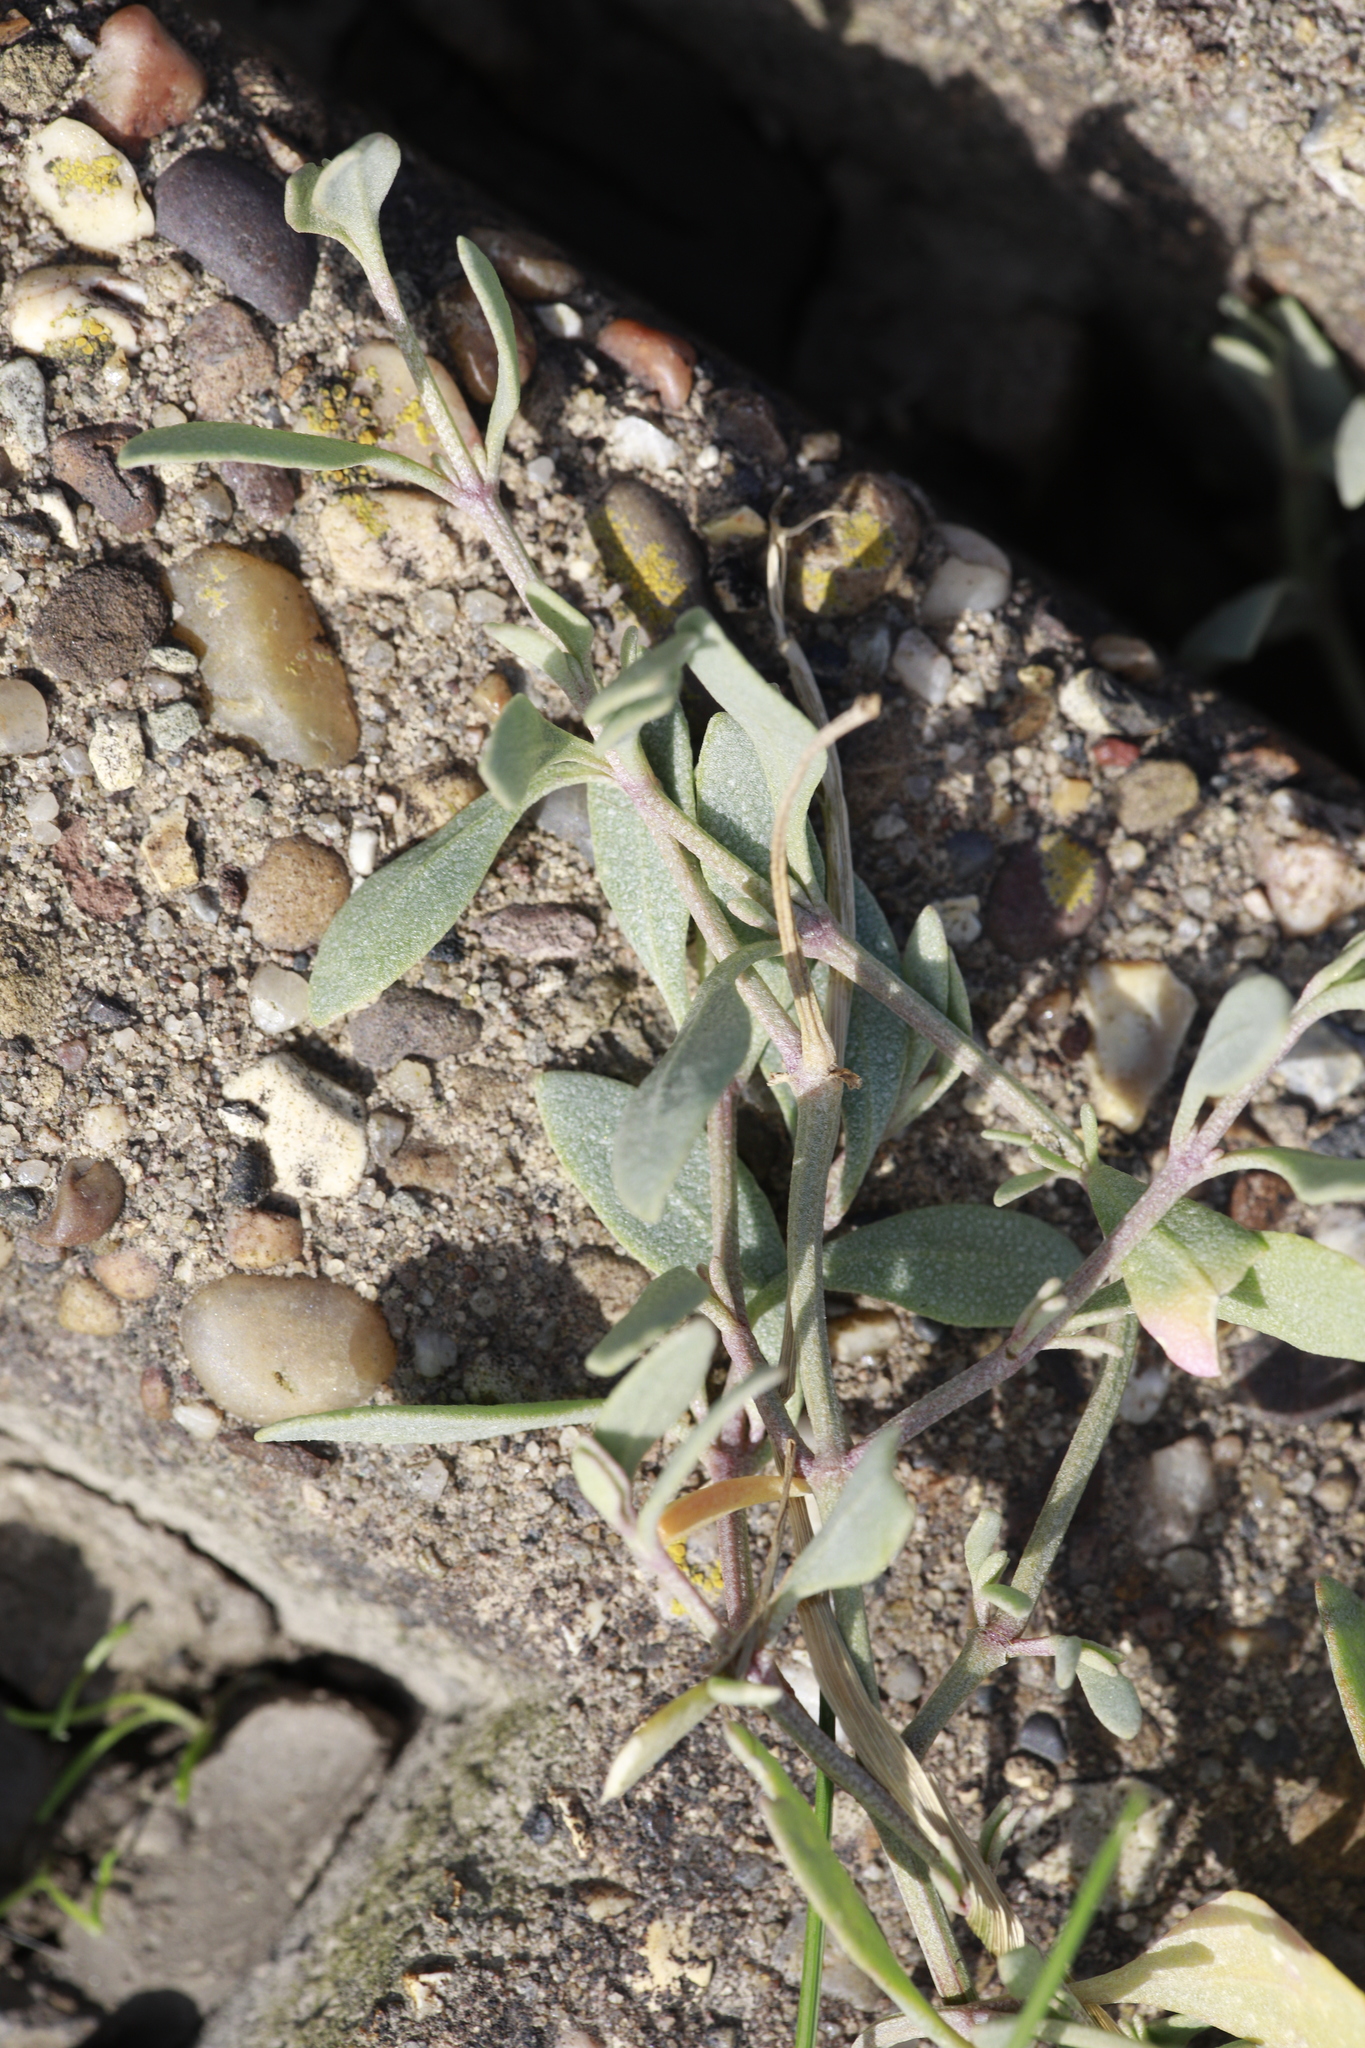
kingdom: Plantae
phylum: Tracheophyta
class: Magnoliopsida
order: Caryophyllales
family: Amaranthaceae
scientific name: Amaranthaceae
